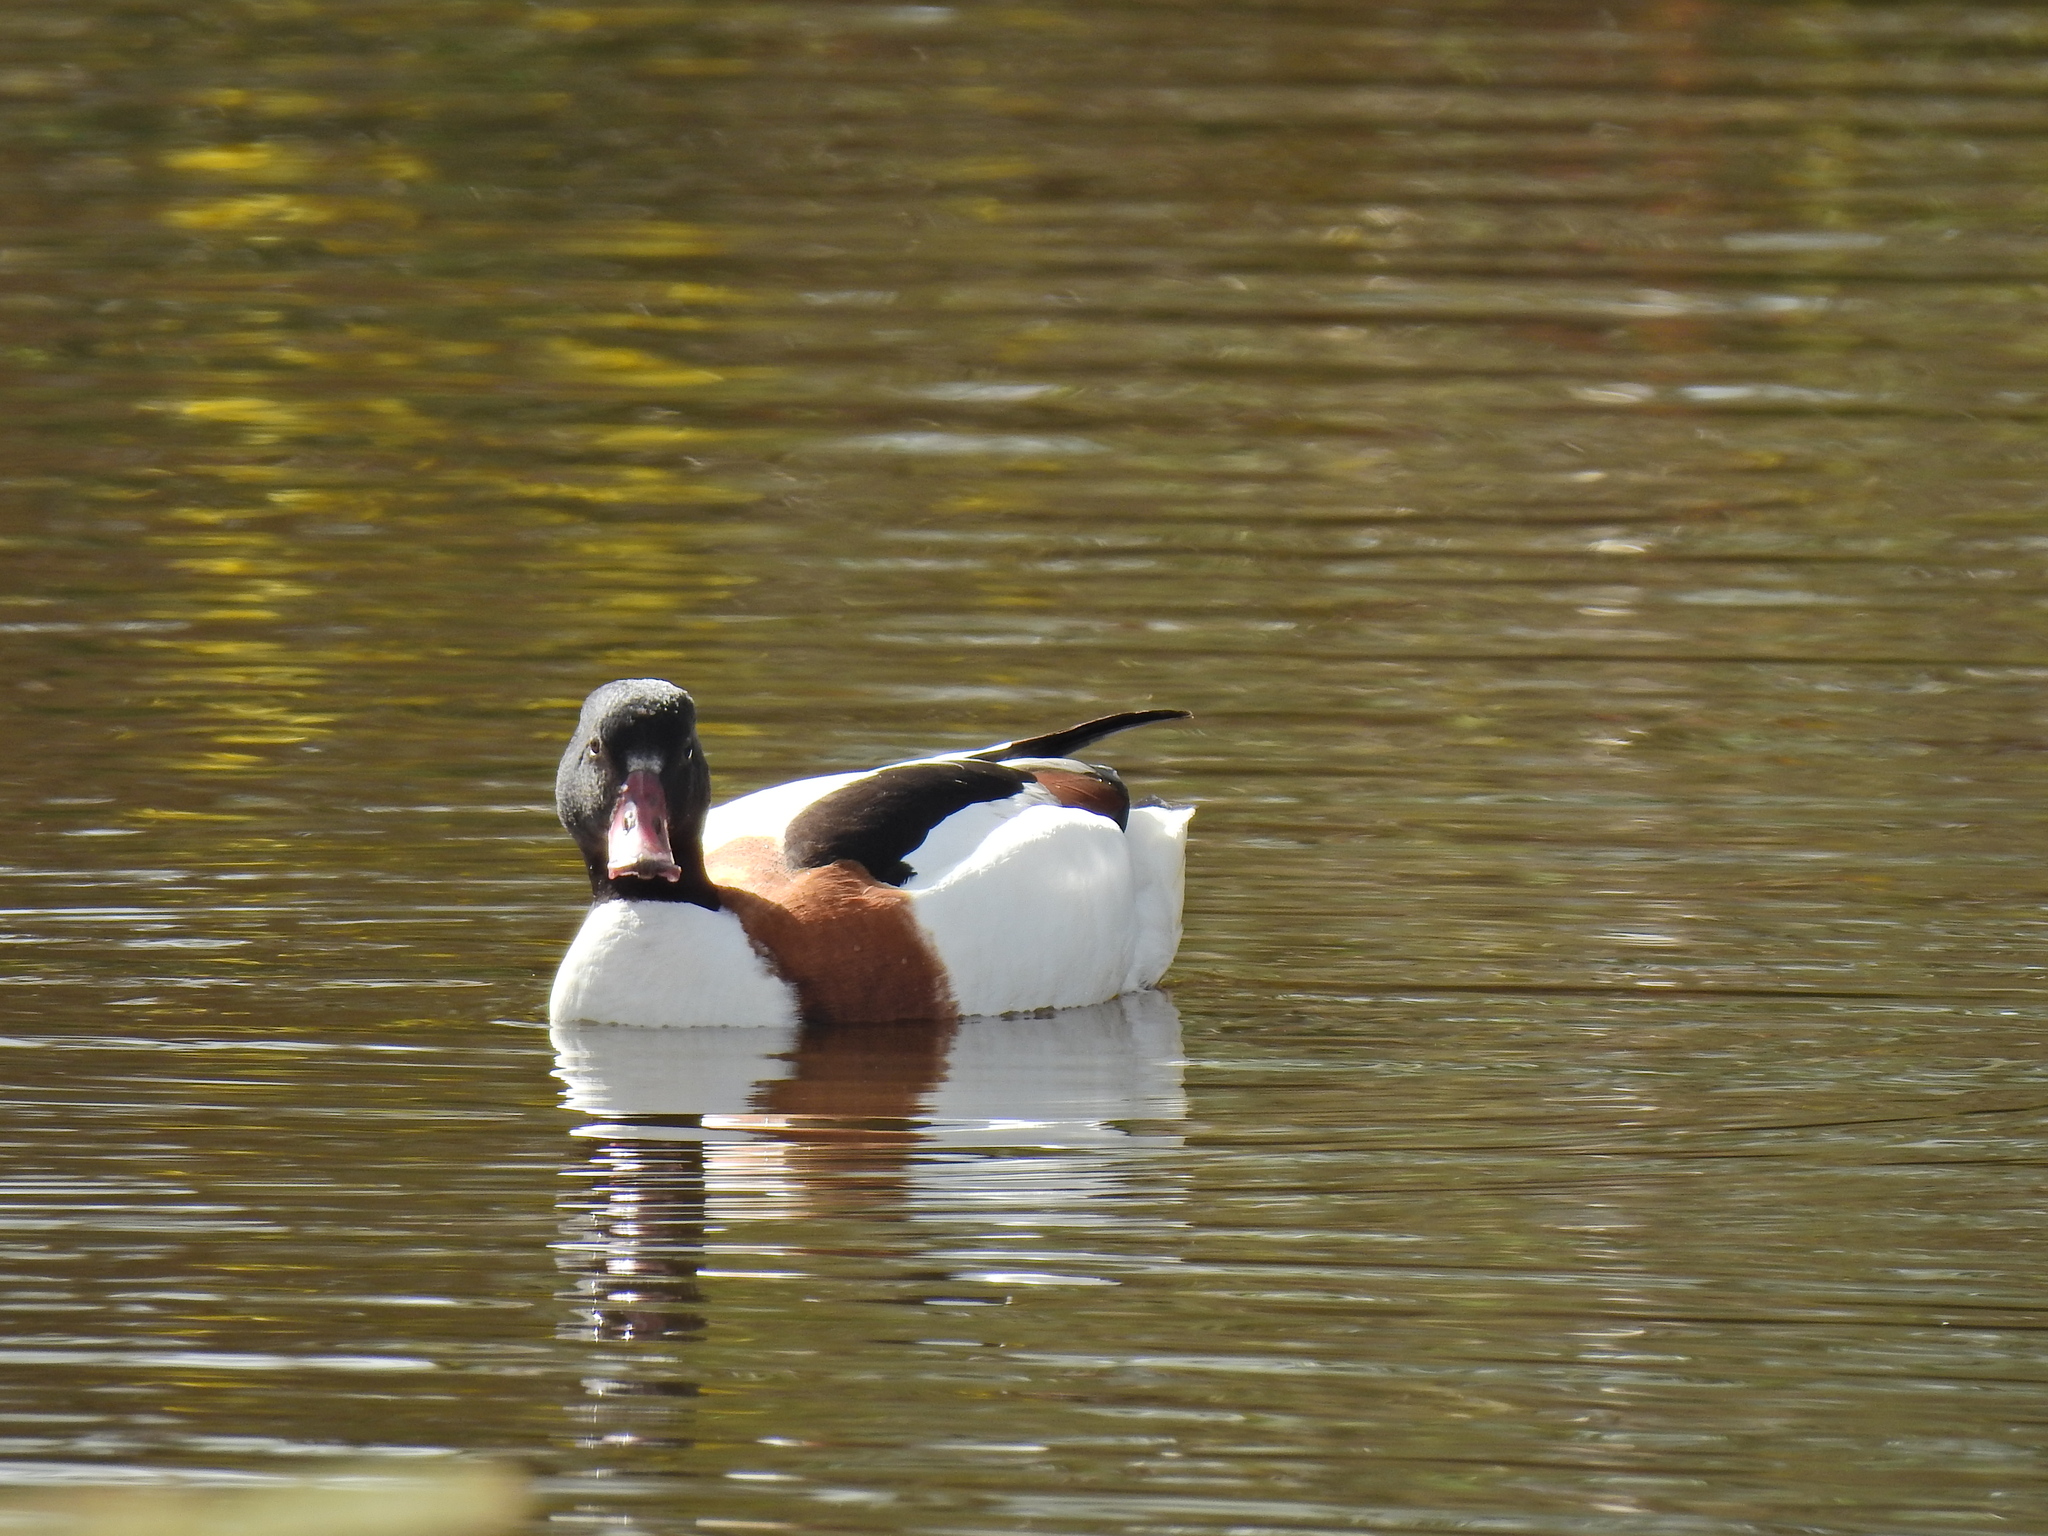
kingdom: Animalia
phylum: Chordata
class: Aves
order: Anseriformes
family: Anatidae
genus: Tadorna
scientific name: Tadorna tadorna
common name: Common shelduck
